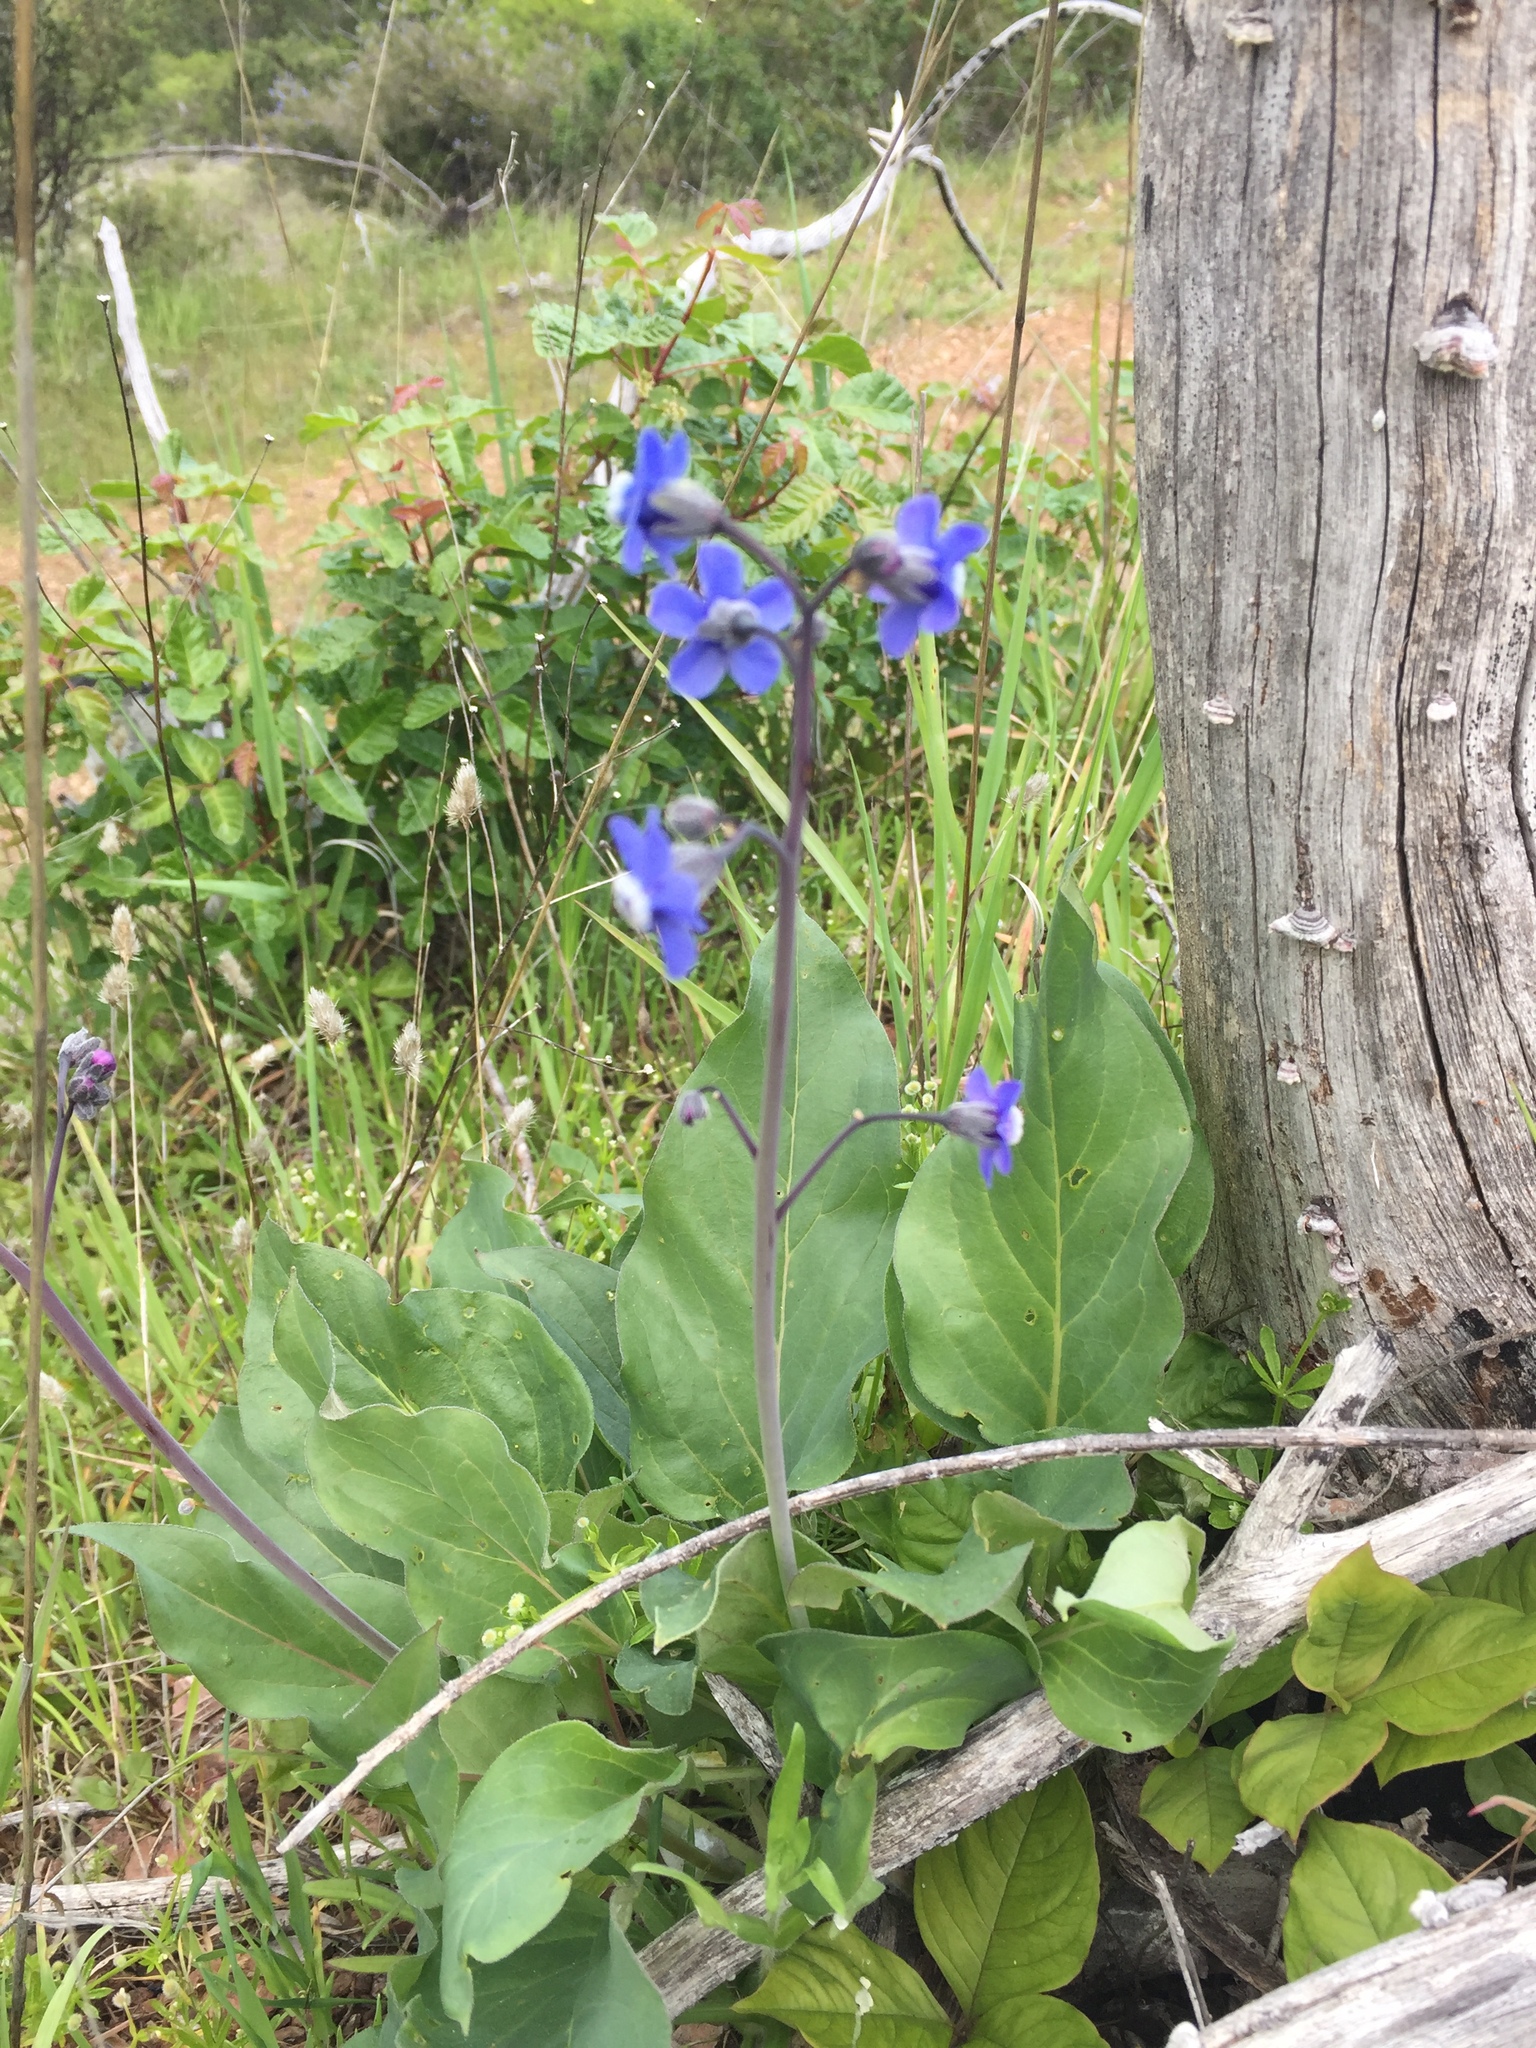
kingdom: Plantae
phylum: Tracheophyta
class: Magnoliopsida
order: Boraginales
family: Boraginaceae
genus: Adelinia
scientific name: Adelinia grande
